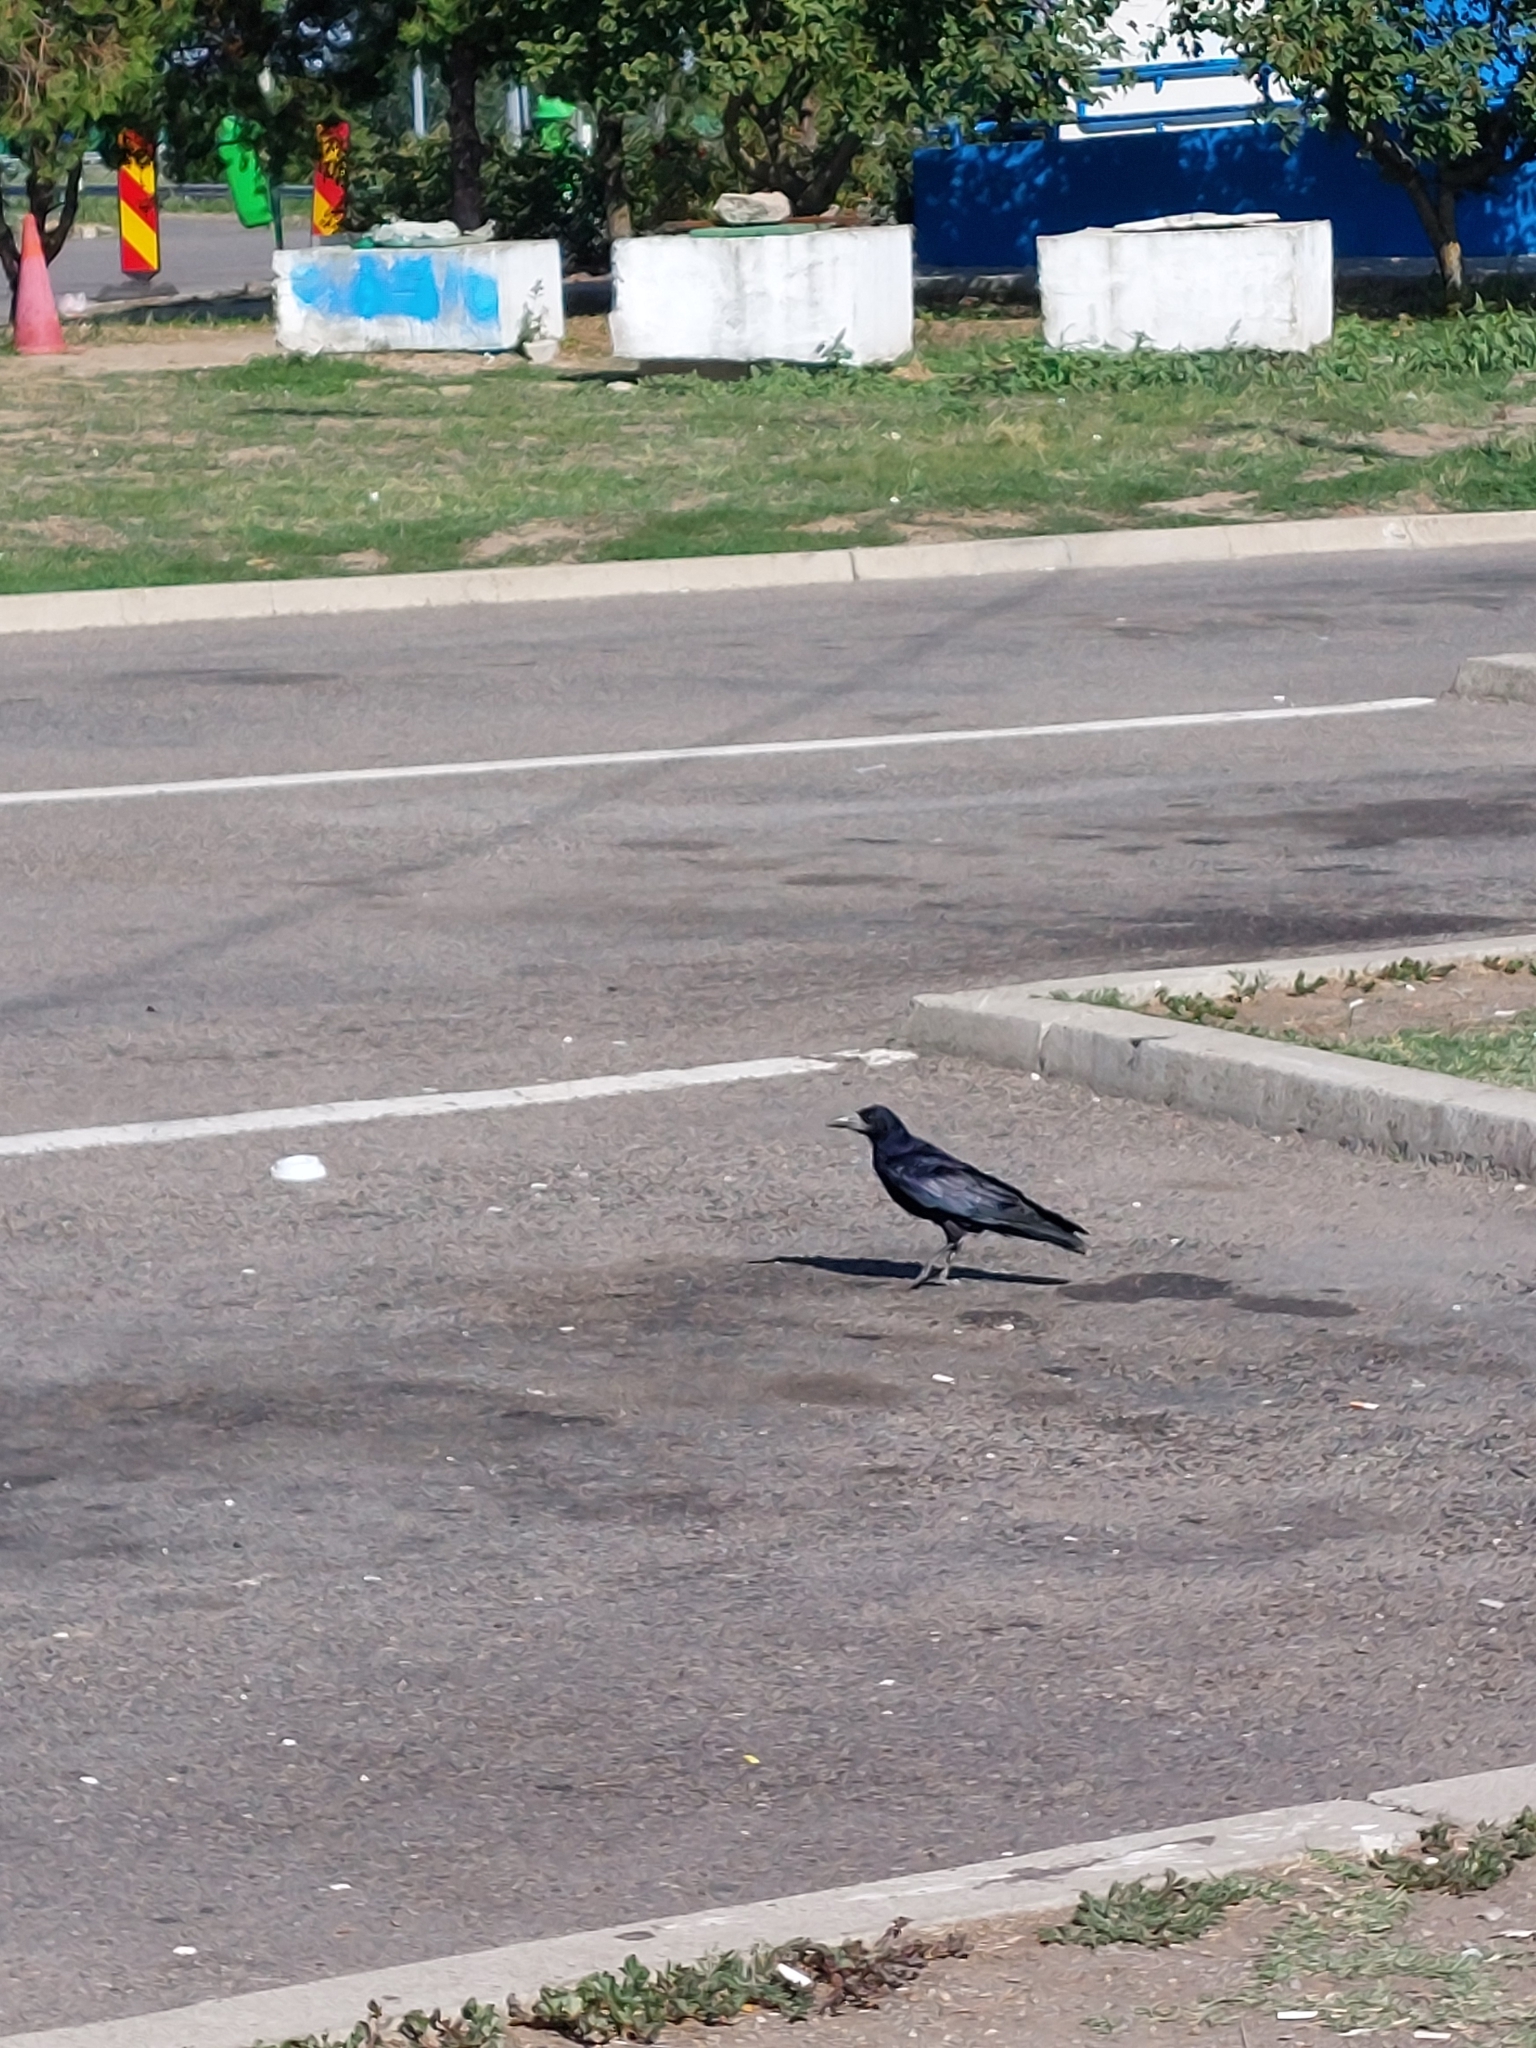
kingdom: Animalia
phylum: Chordata
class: Aves
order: Passeriformes
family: Corvidae
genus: Corvus
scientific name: Corvus frugilegus
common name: Rook
